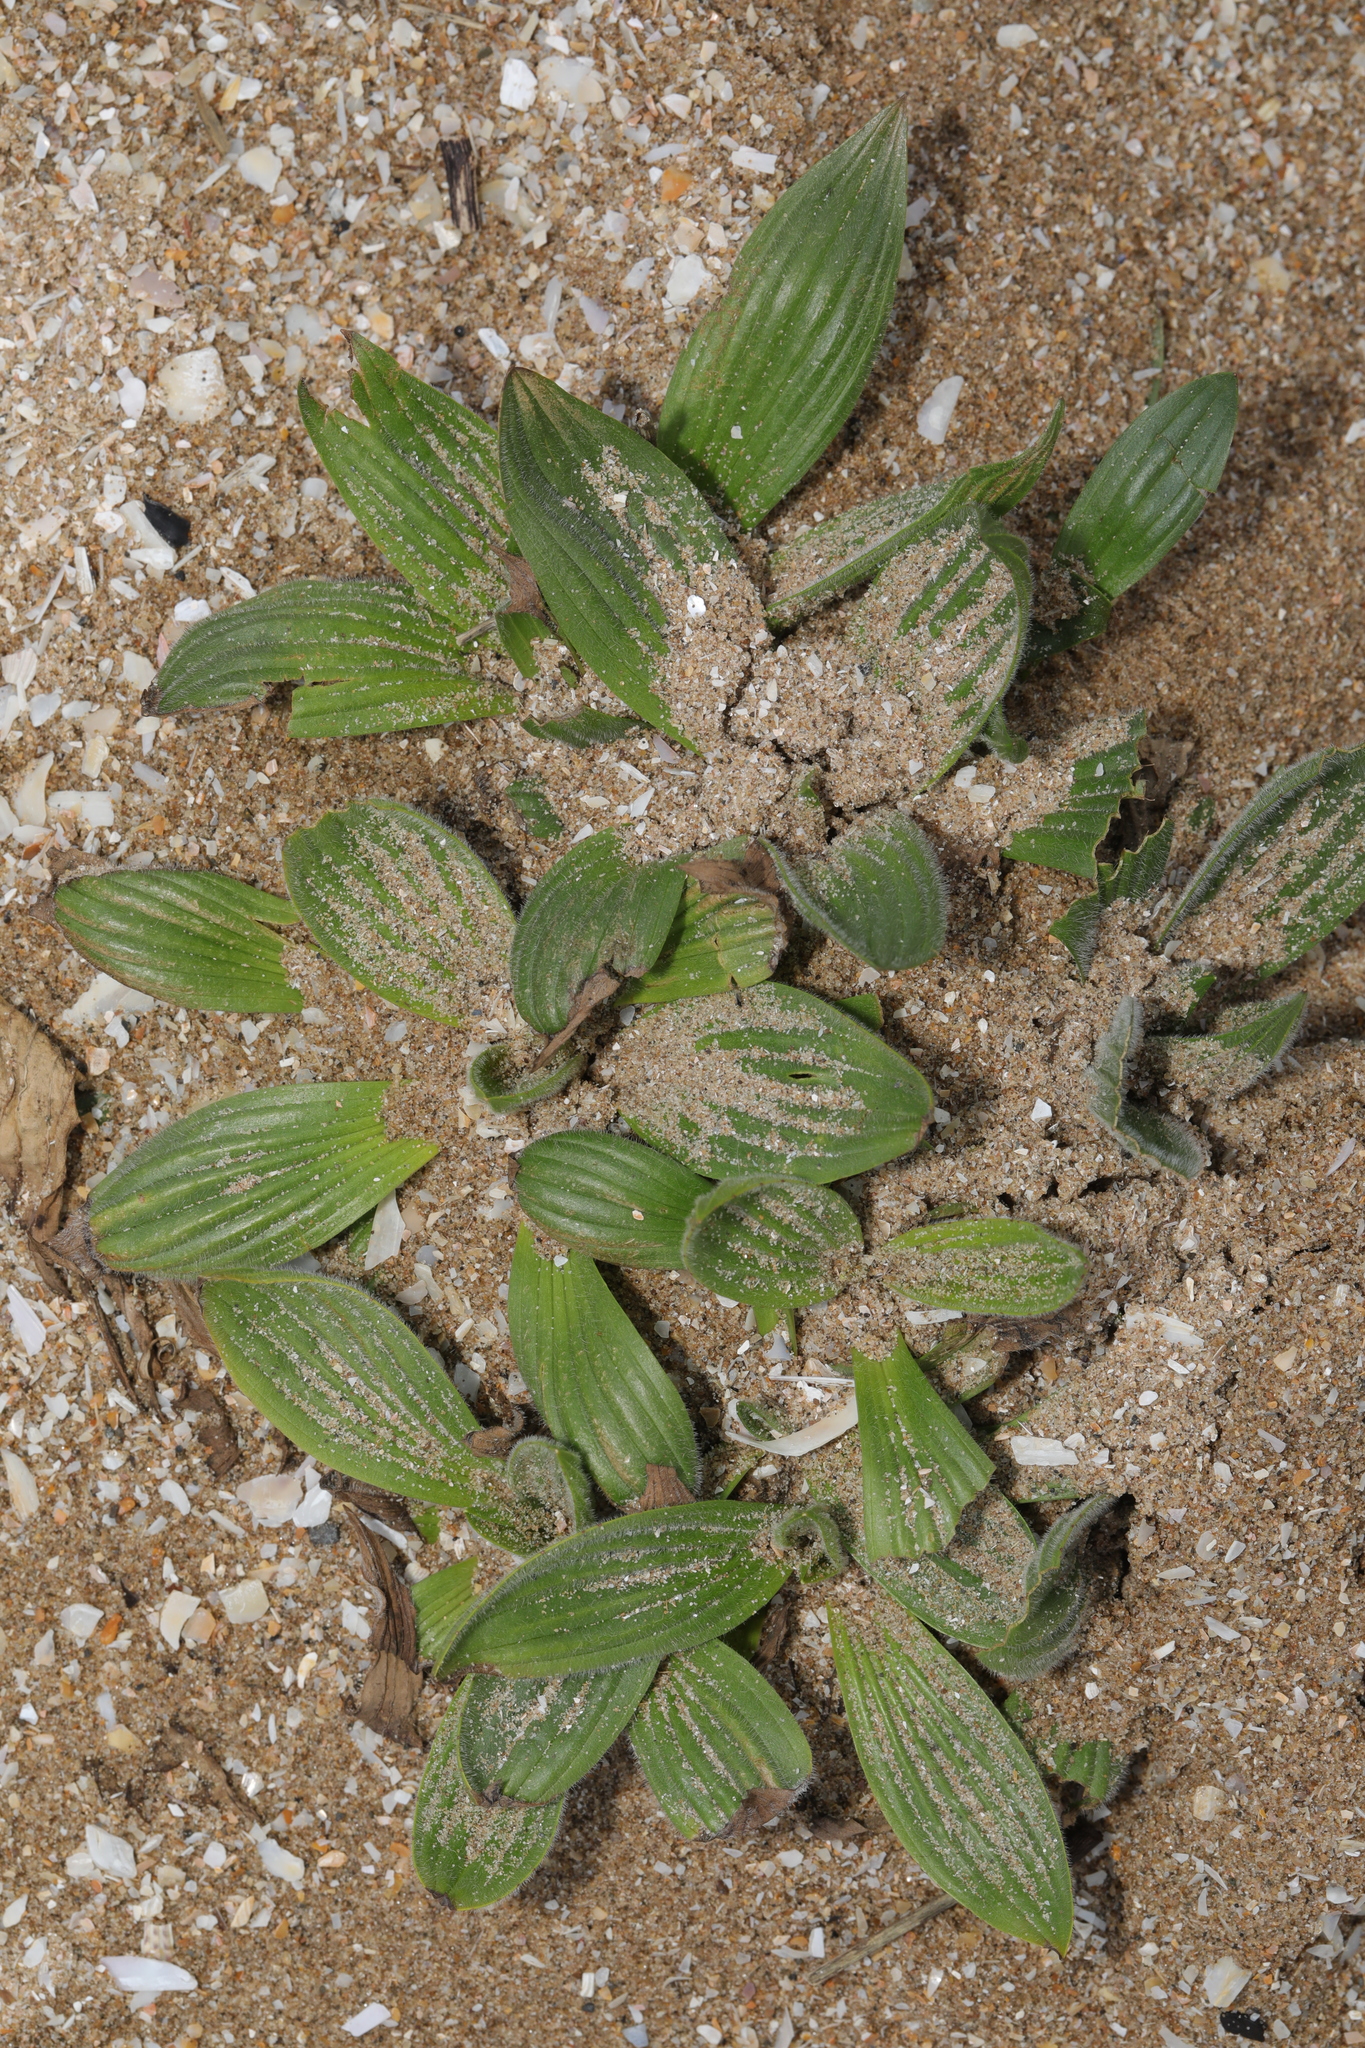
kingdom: Plantae
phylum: Tracheophyta
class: Magnoliopsida
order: Lamiales
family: Plantaginaceae
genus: Plantago
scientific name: Plantago lanceolata
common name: Ribwort plantain
